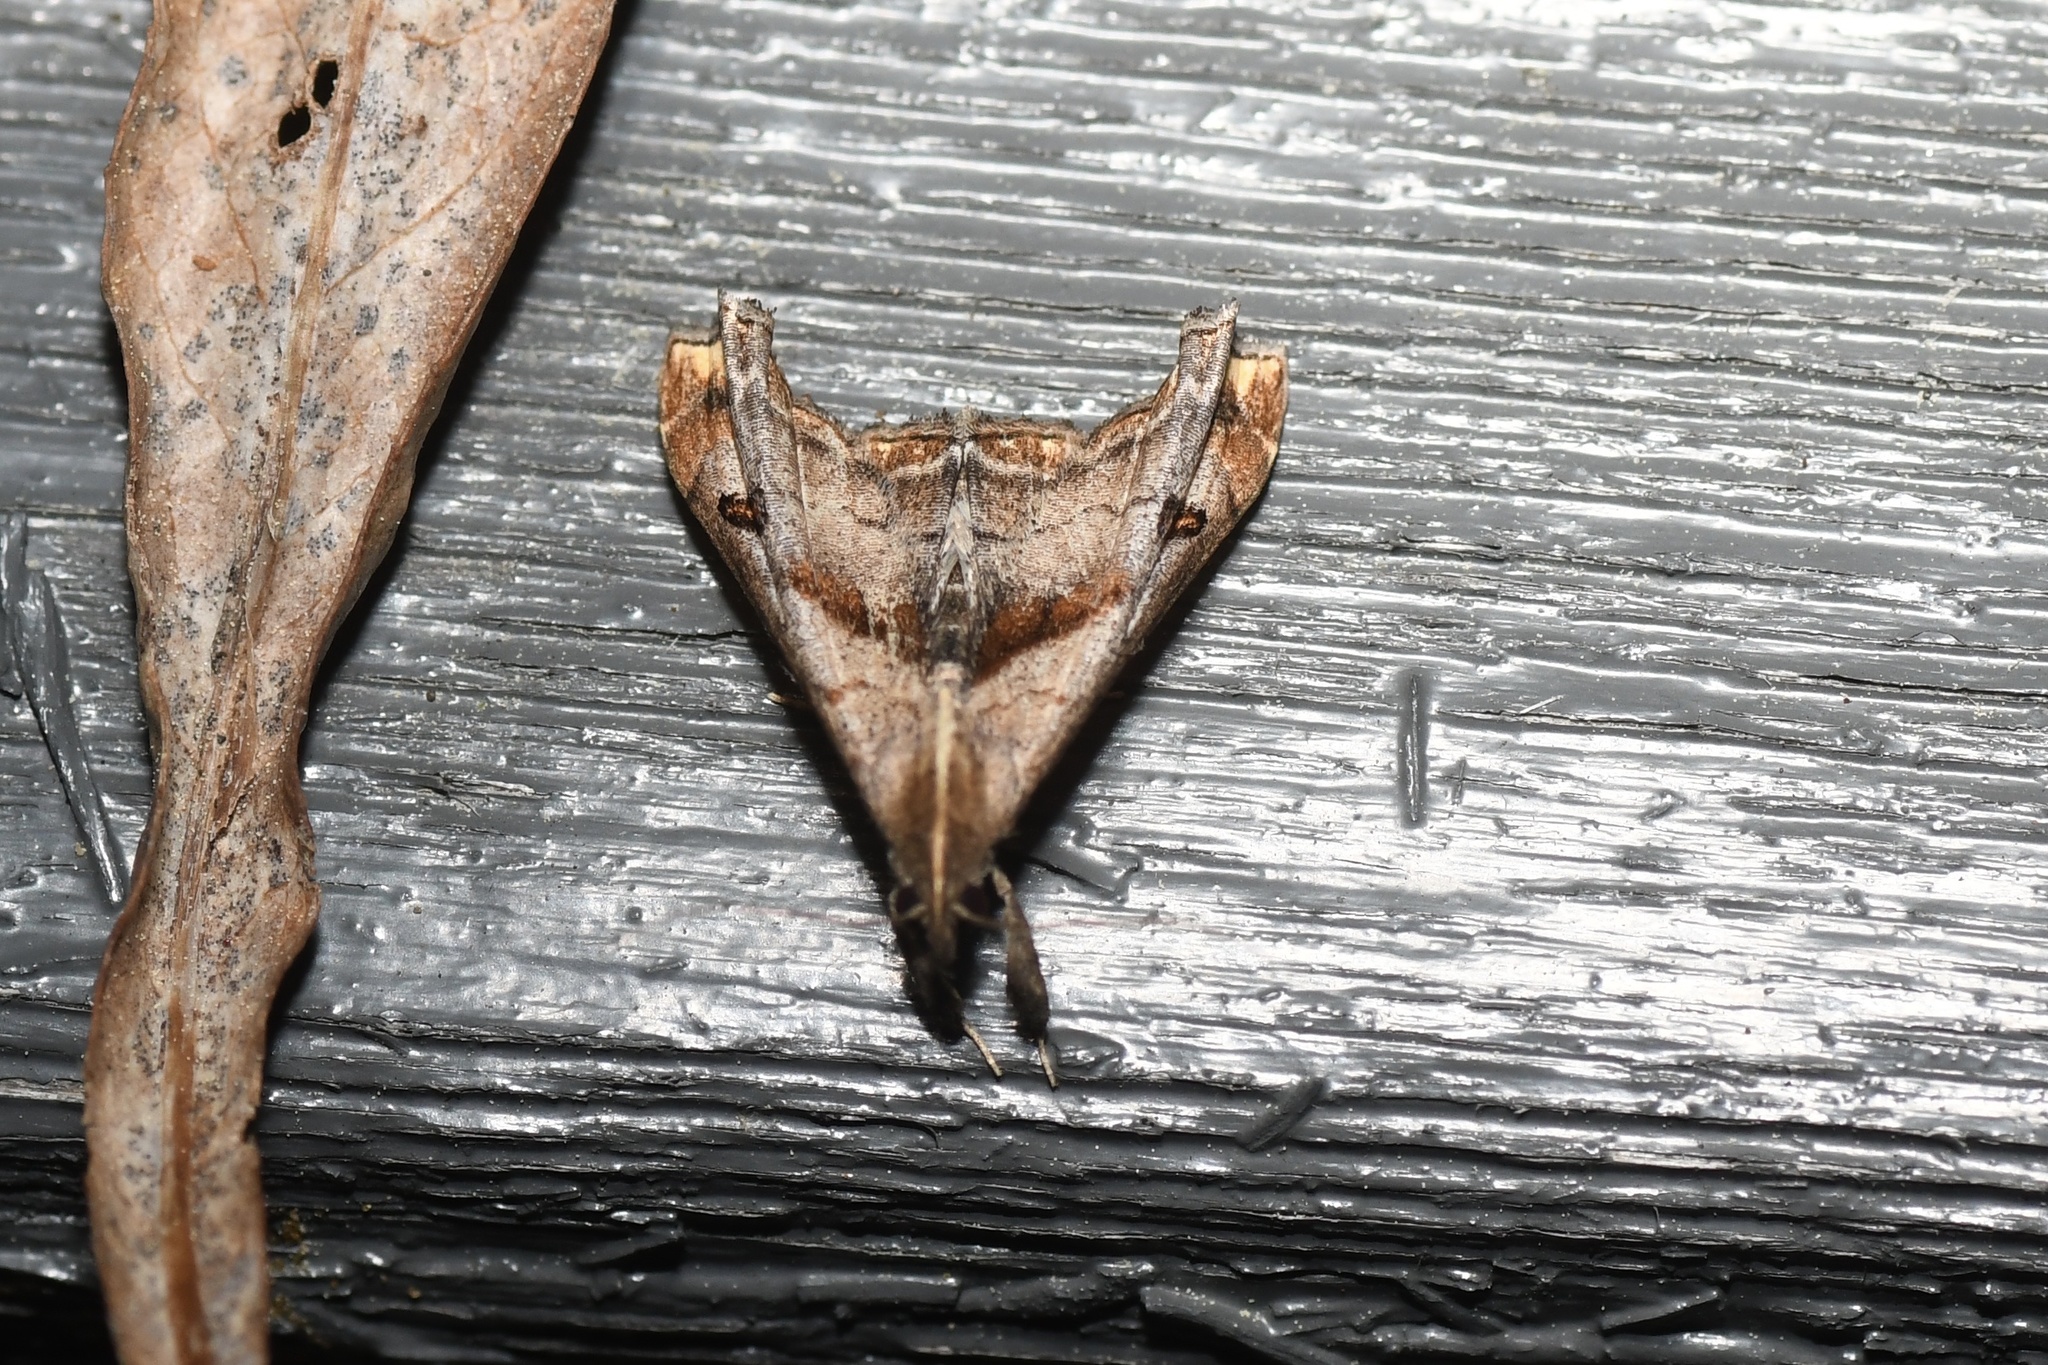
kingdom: Animalia
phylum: Arthropoda
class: Insecta
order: Lepidoptera
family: Erebidae
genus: Palthis
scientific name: Palthis angulalis
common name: Dark-spotted palthis moth
